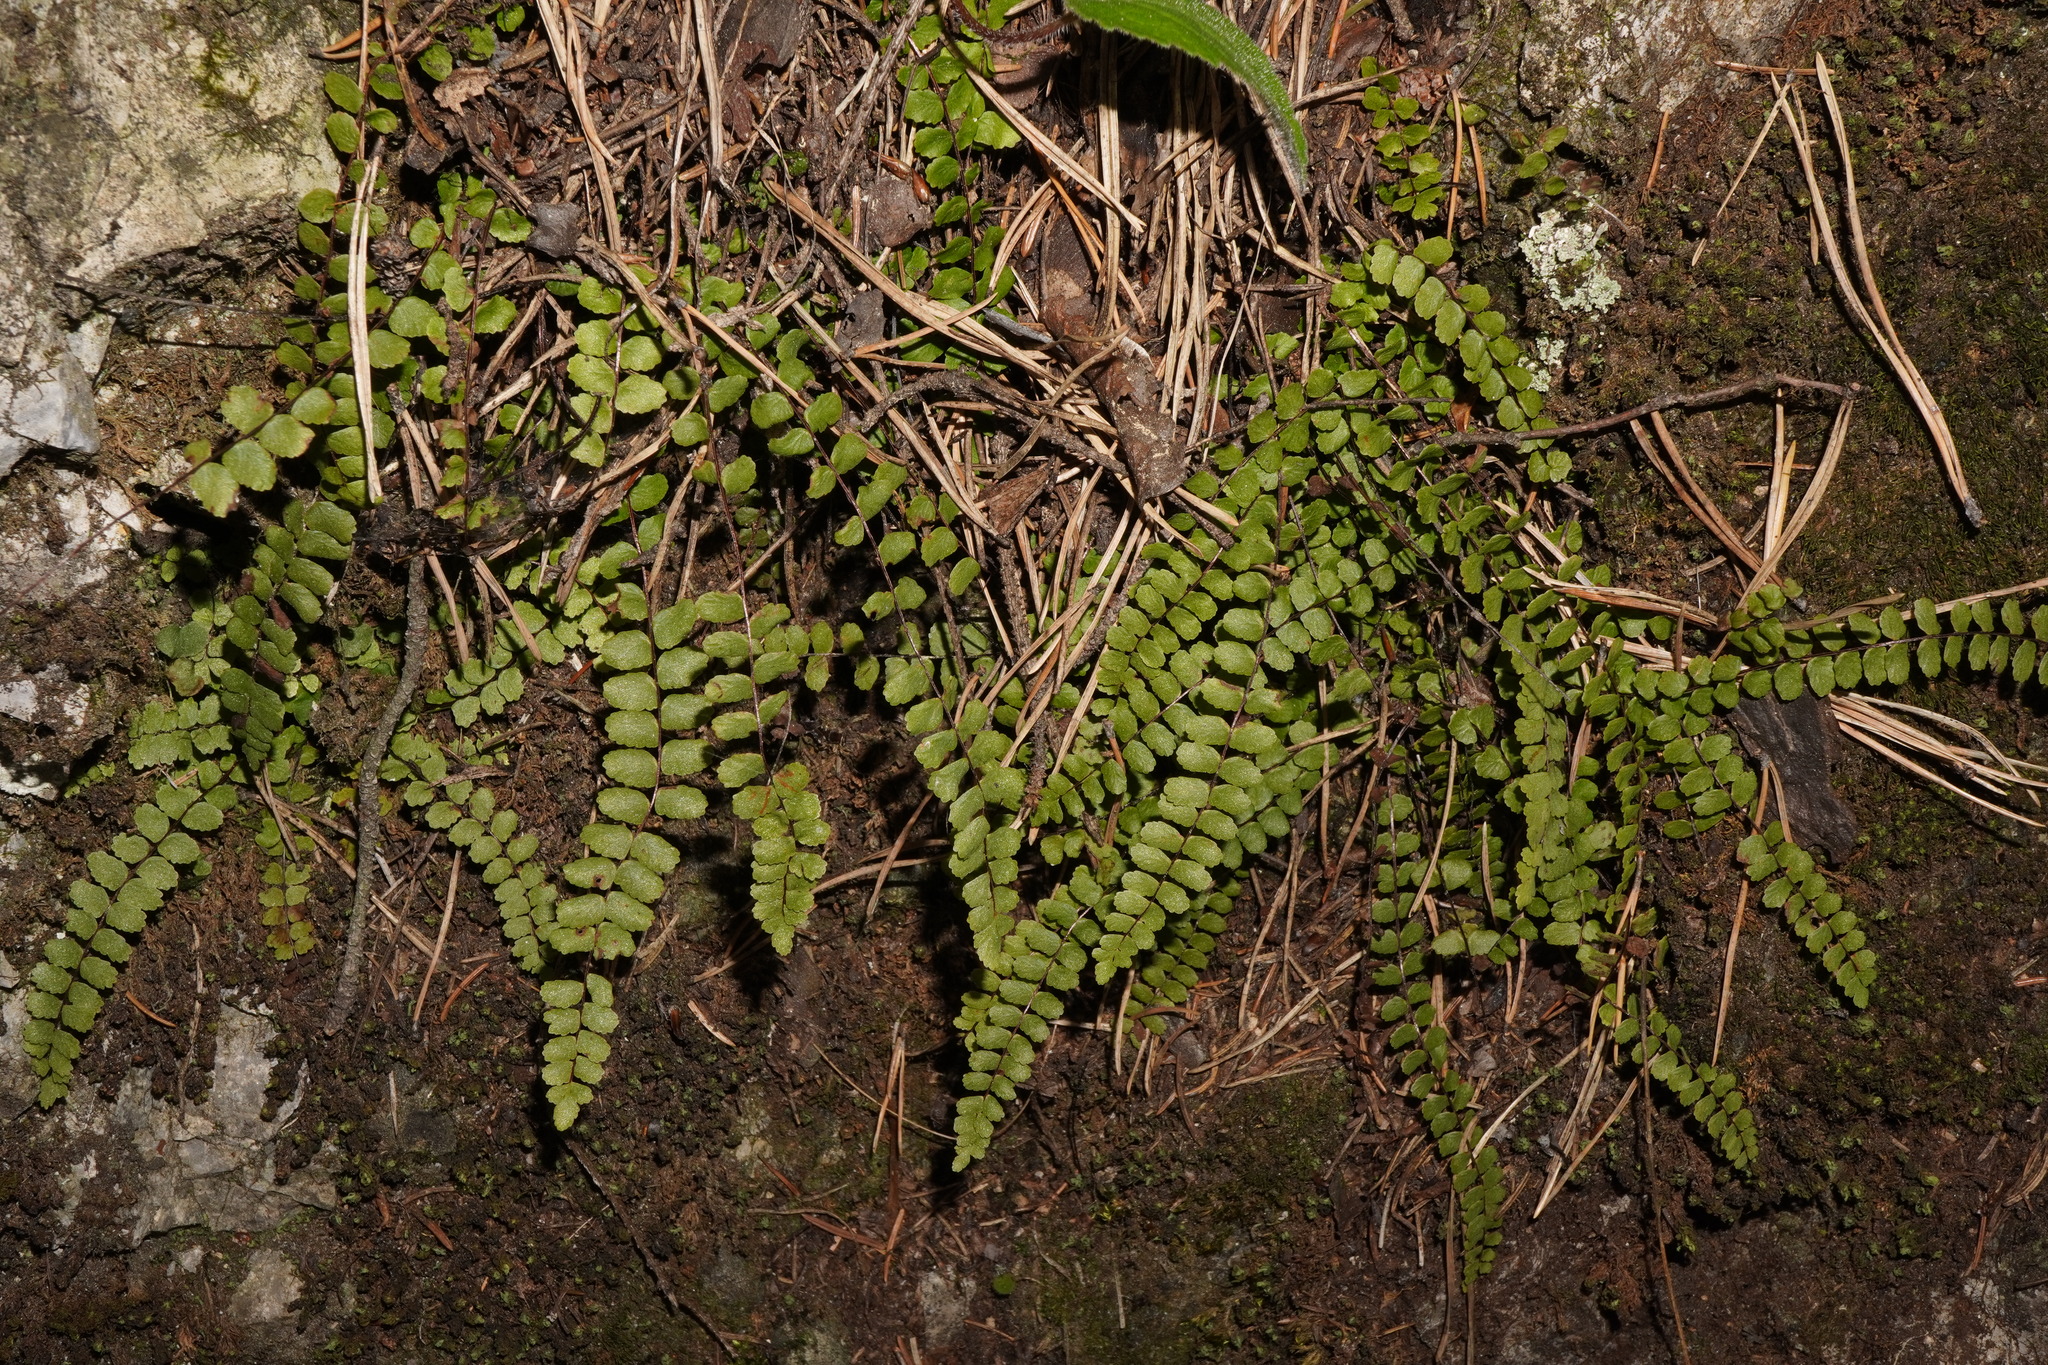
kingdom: Plantae
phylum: Tracheophyta
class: Polypodiopsida
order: Polypodiales
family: Aspleniaceae
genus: Asplenium
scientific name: Asplenium trichomanes
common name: Maidenhair spleenwort
